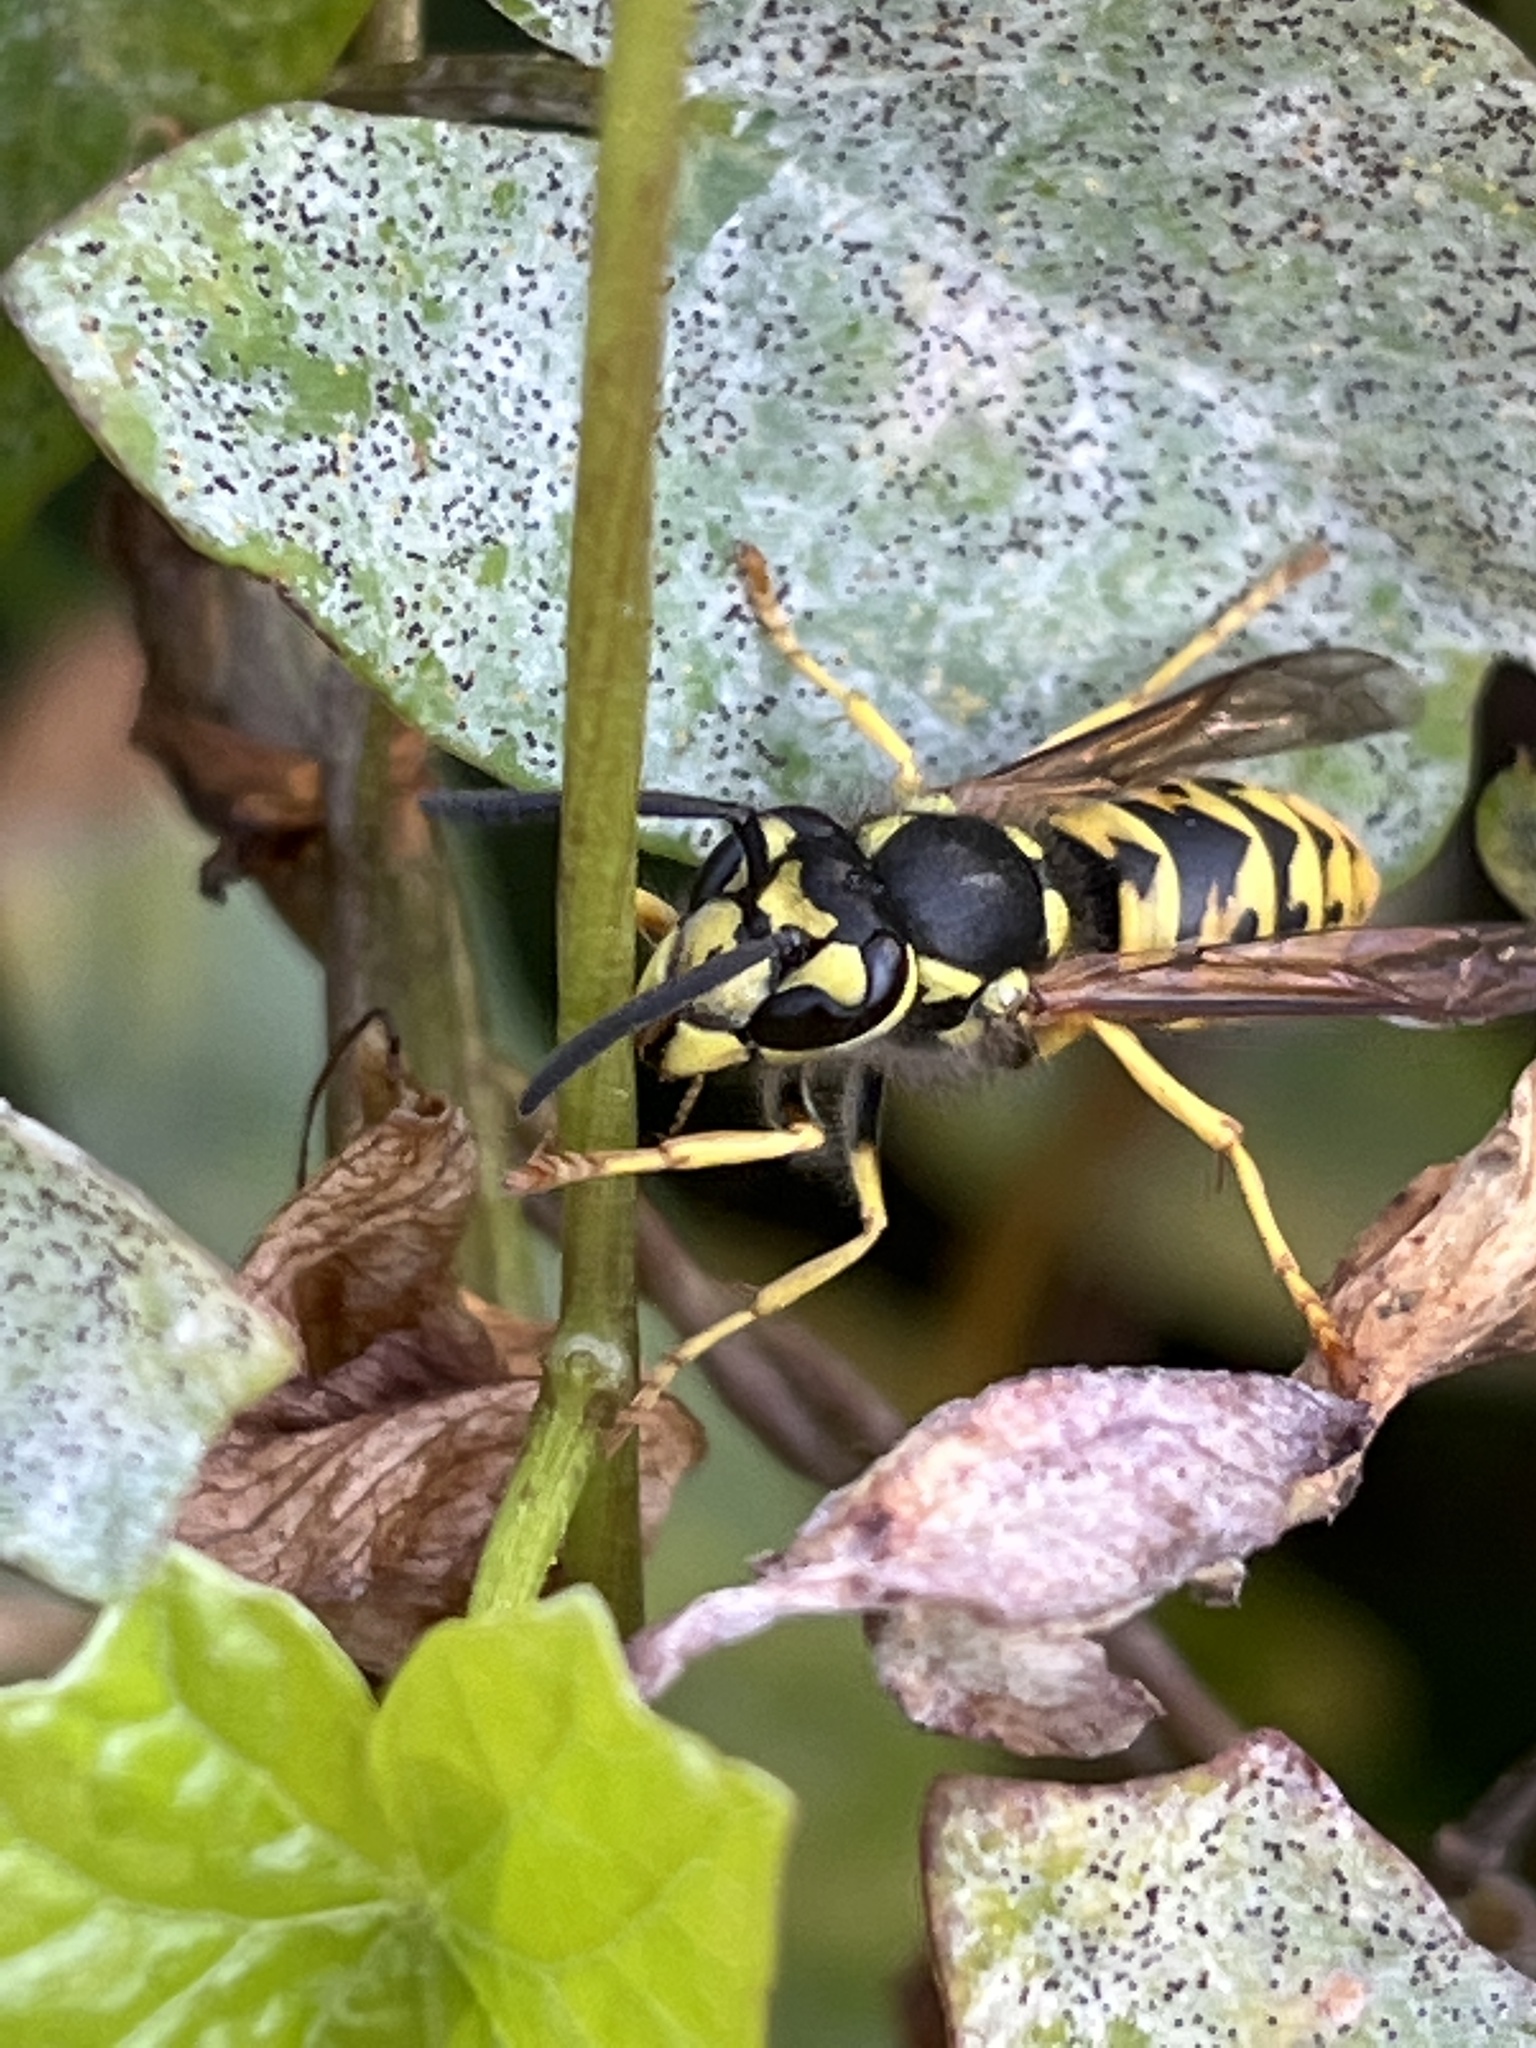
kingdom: Animalia
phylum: Arthropoda
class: Insecta
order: Hymenoptera
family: Vespidae
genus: Vespula
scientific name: Vespula germanica
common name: German wasp
